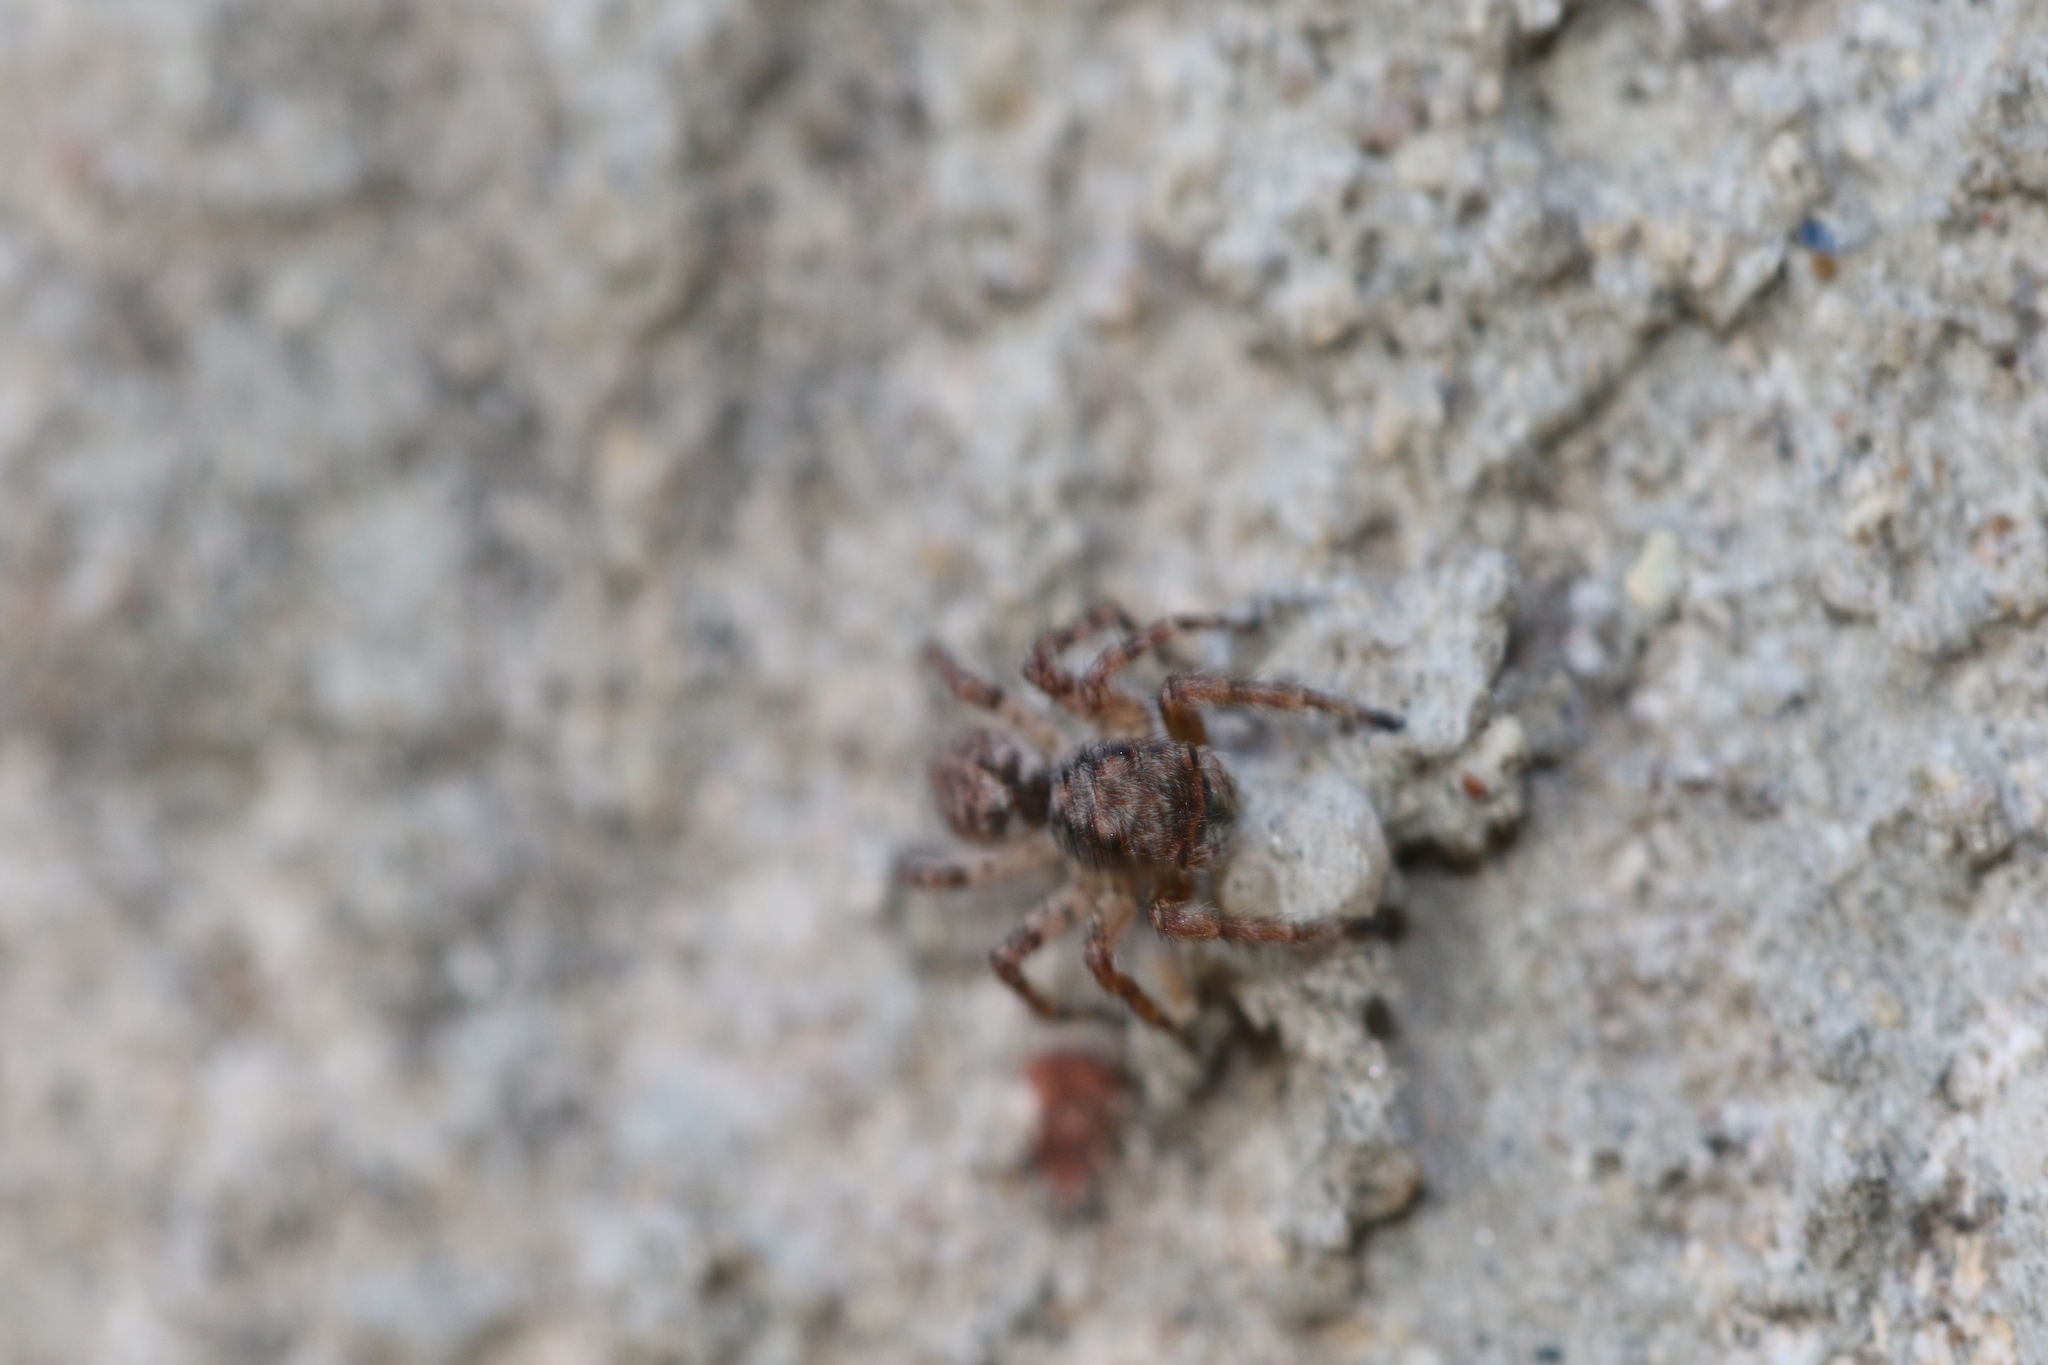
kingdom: Animalia
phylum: Arthropoda
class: Arachnida
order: Araneae
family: Salticidae
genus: Marma
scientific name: Marma nigritarsis
